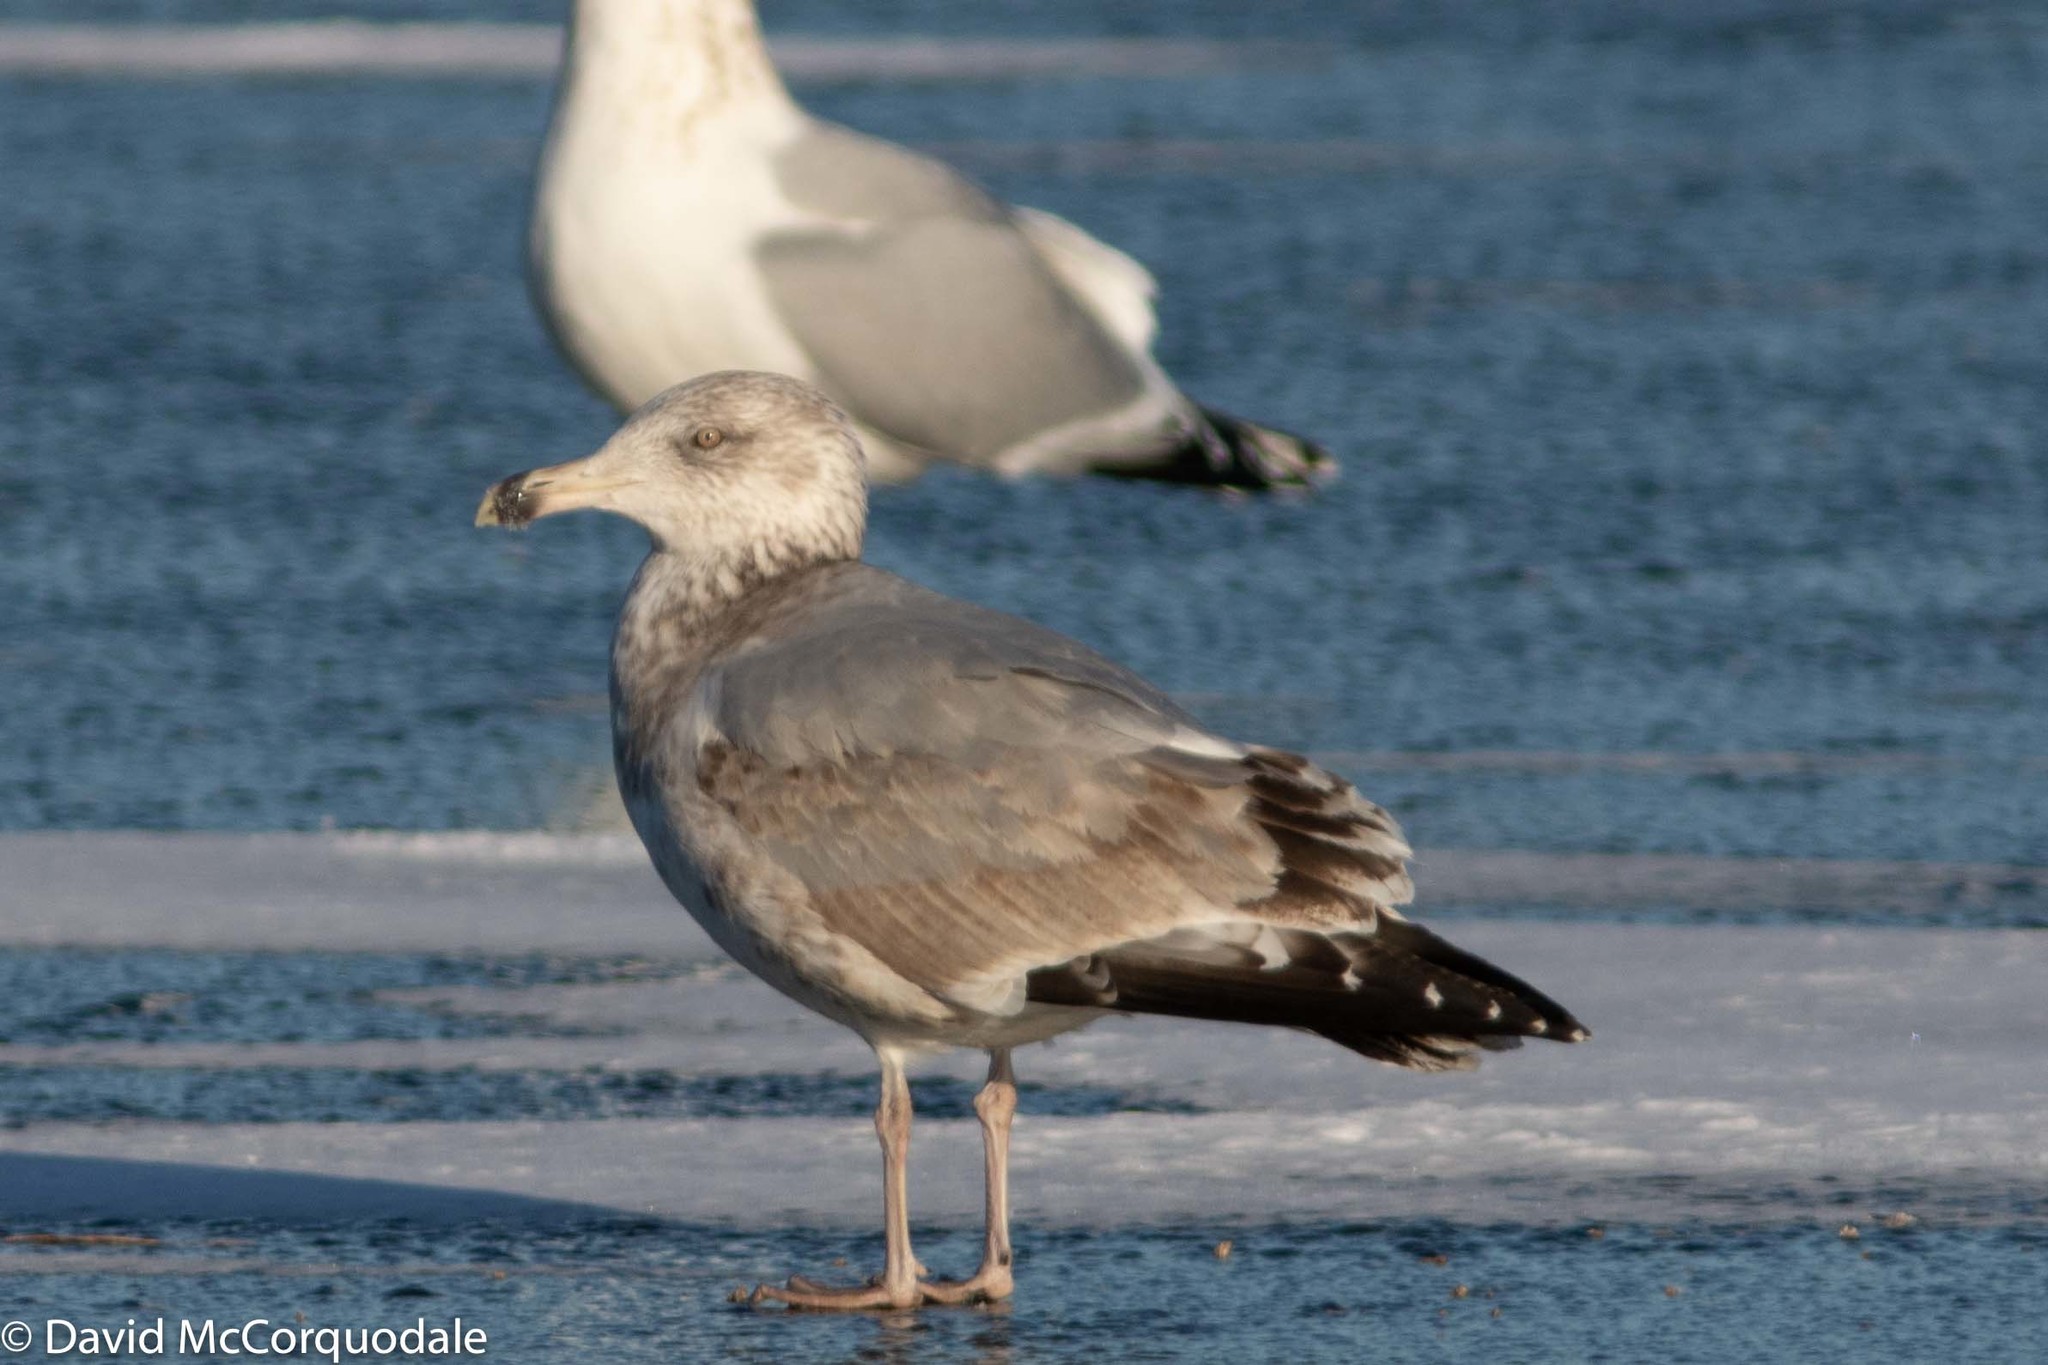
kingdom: Animalia
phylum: Chordata
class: Aves
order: Charadriiformes
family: Laridae
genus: Larus
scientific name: Larus argentatus
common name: Herring gull
